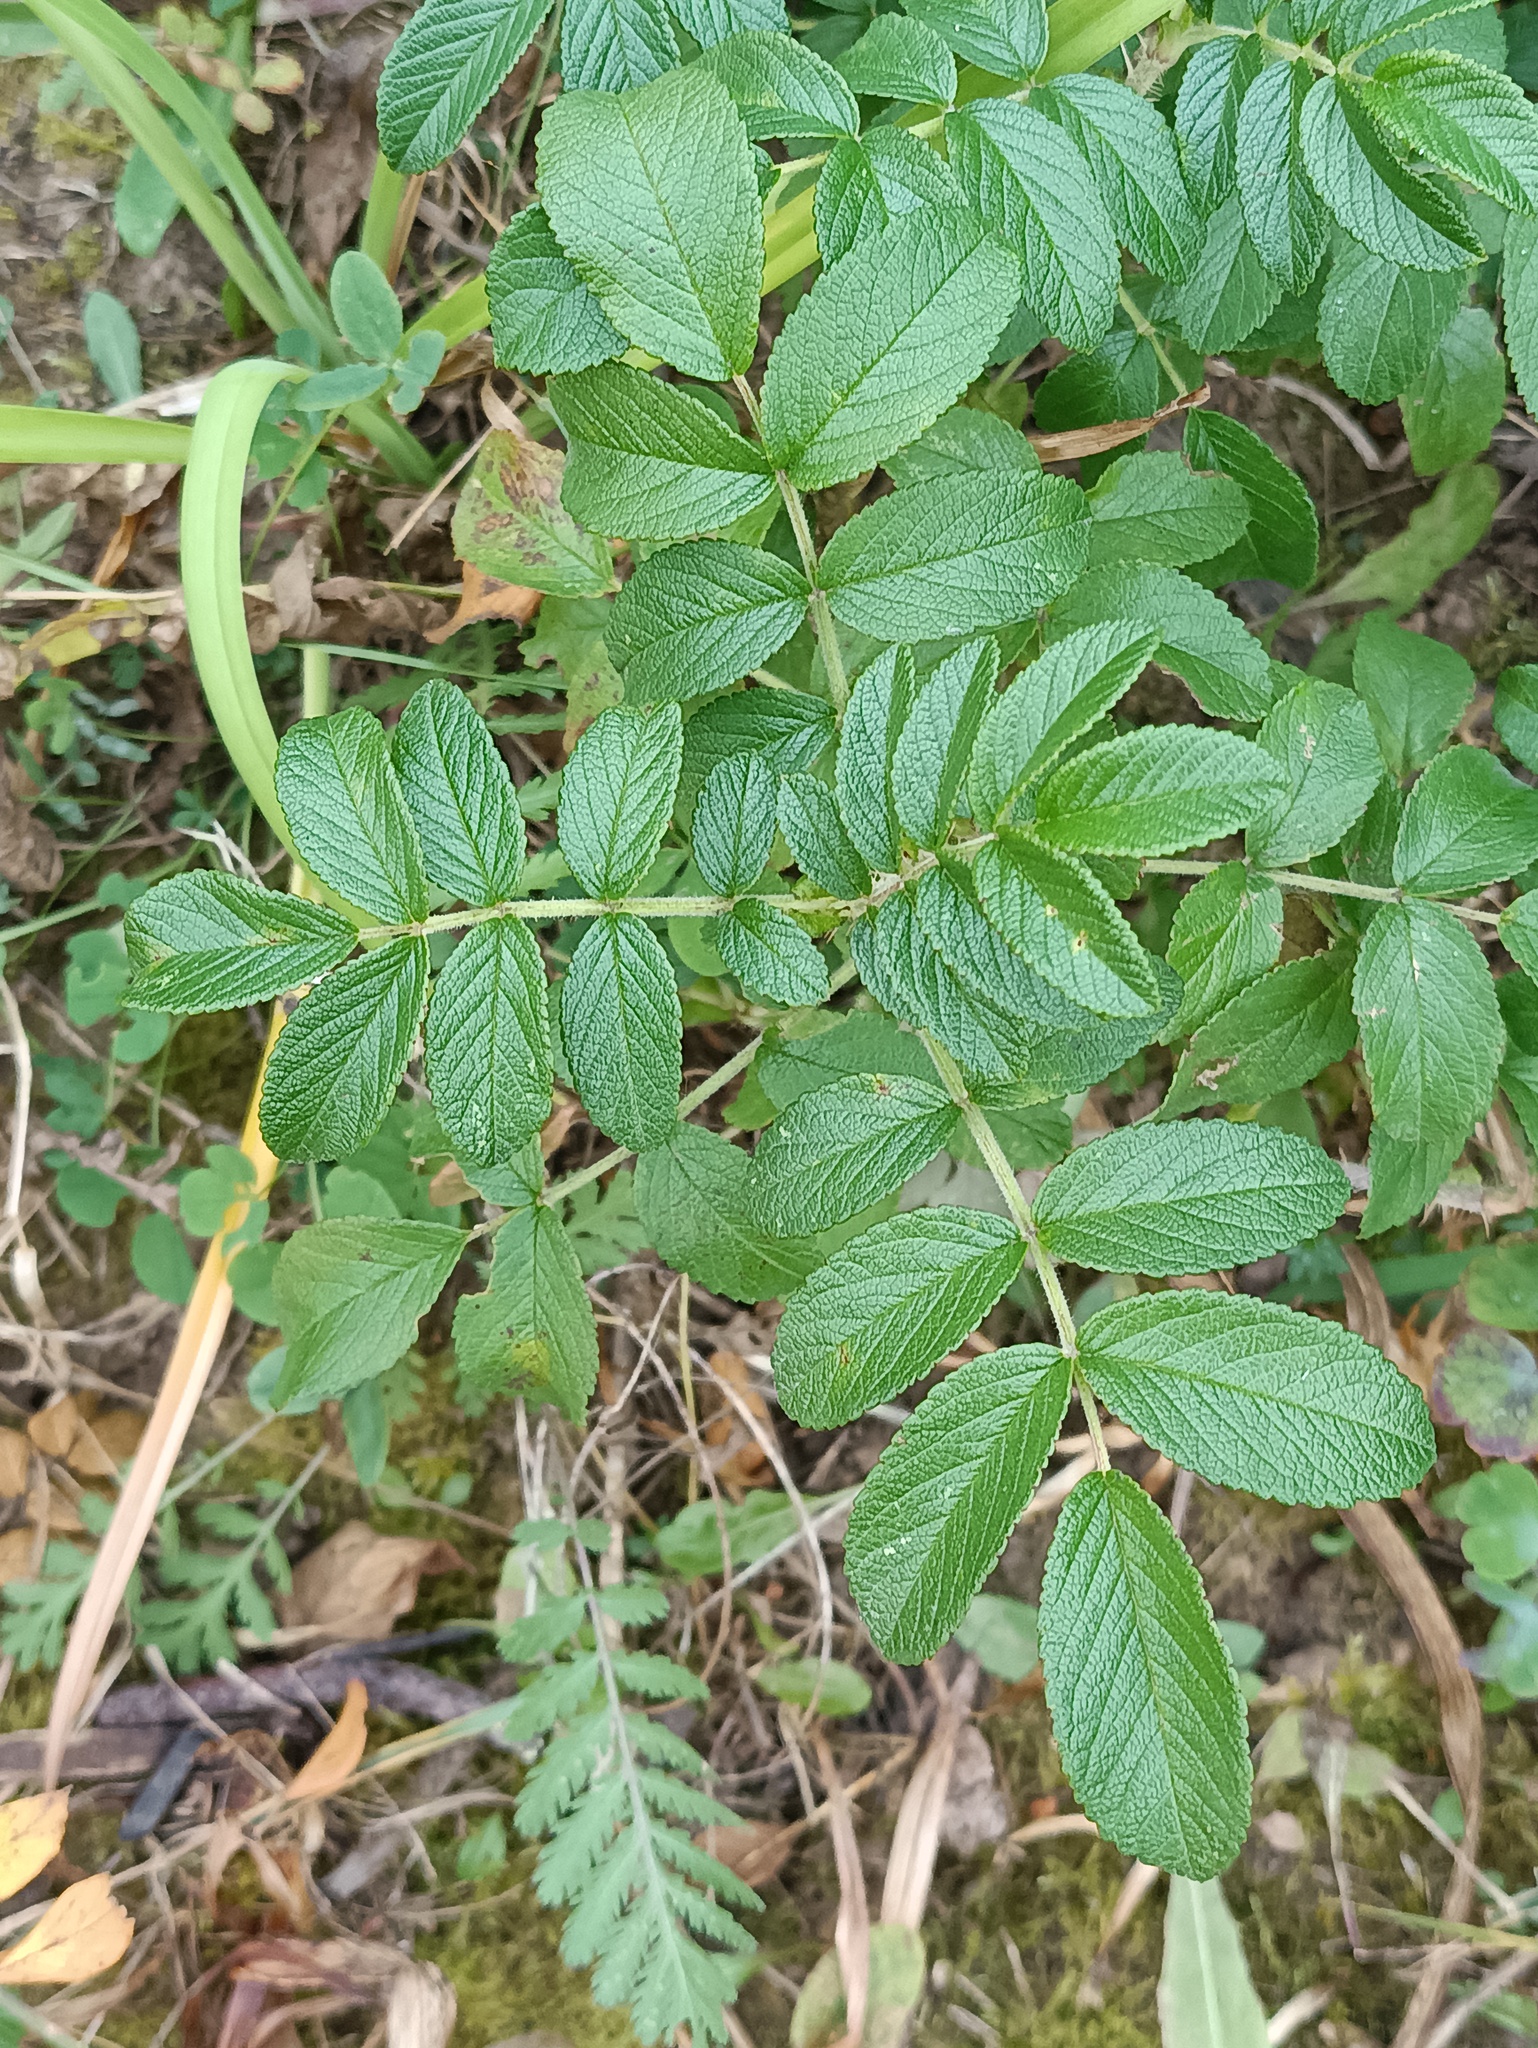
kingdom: Plantae
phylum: Tracheophyta
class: Magnoliopsida
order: Rosales
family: Rosaceae
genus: Rosa
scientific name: Rosa rugosa
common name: Japanese rose
